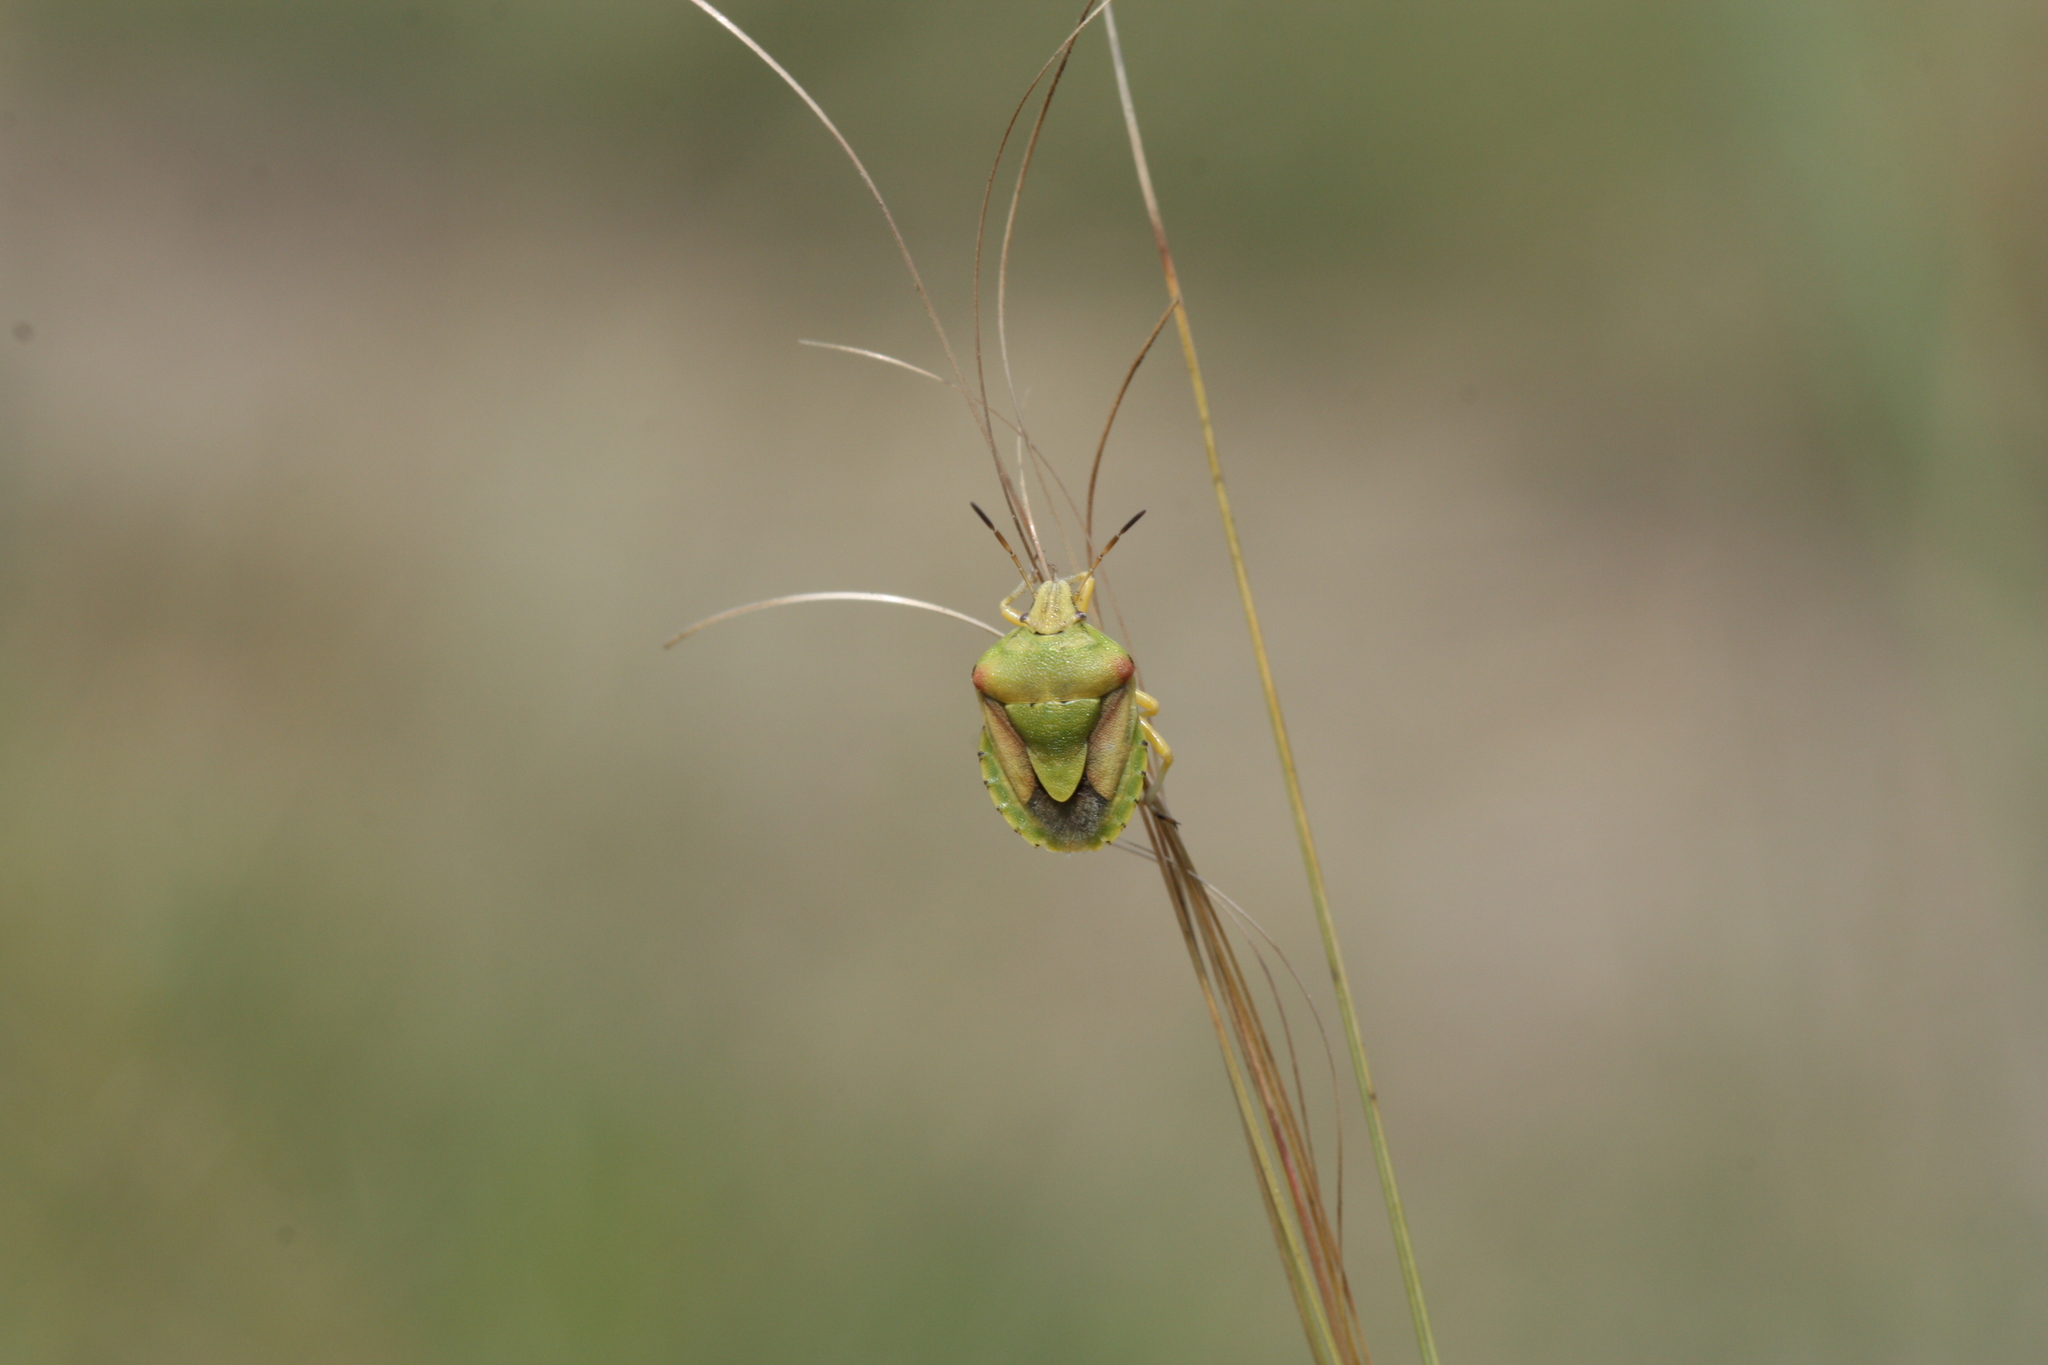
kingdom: Animalia
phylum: Arthropoda
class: Insecta
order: Hemiptera
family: Pentatomidae
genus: Antheminia
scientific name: Antheminia lunulata
